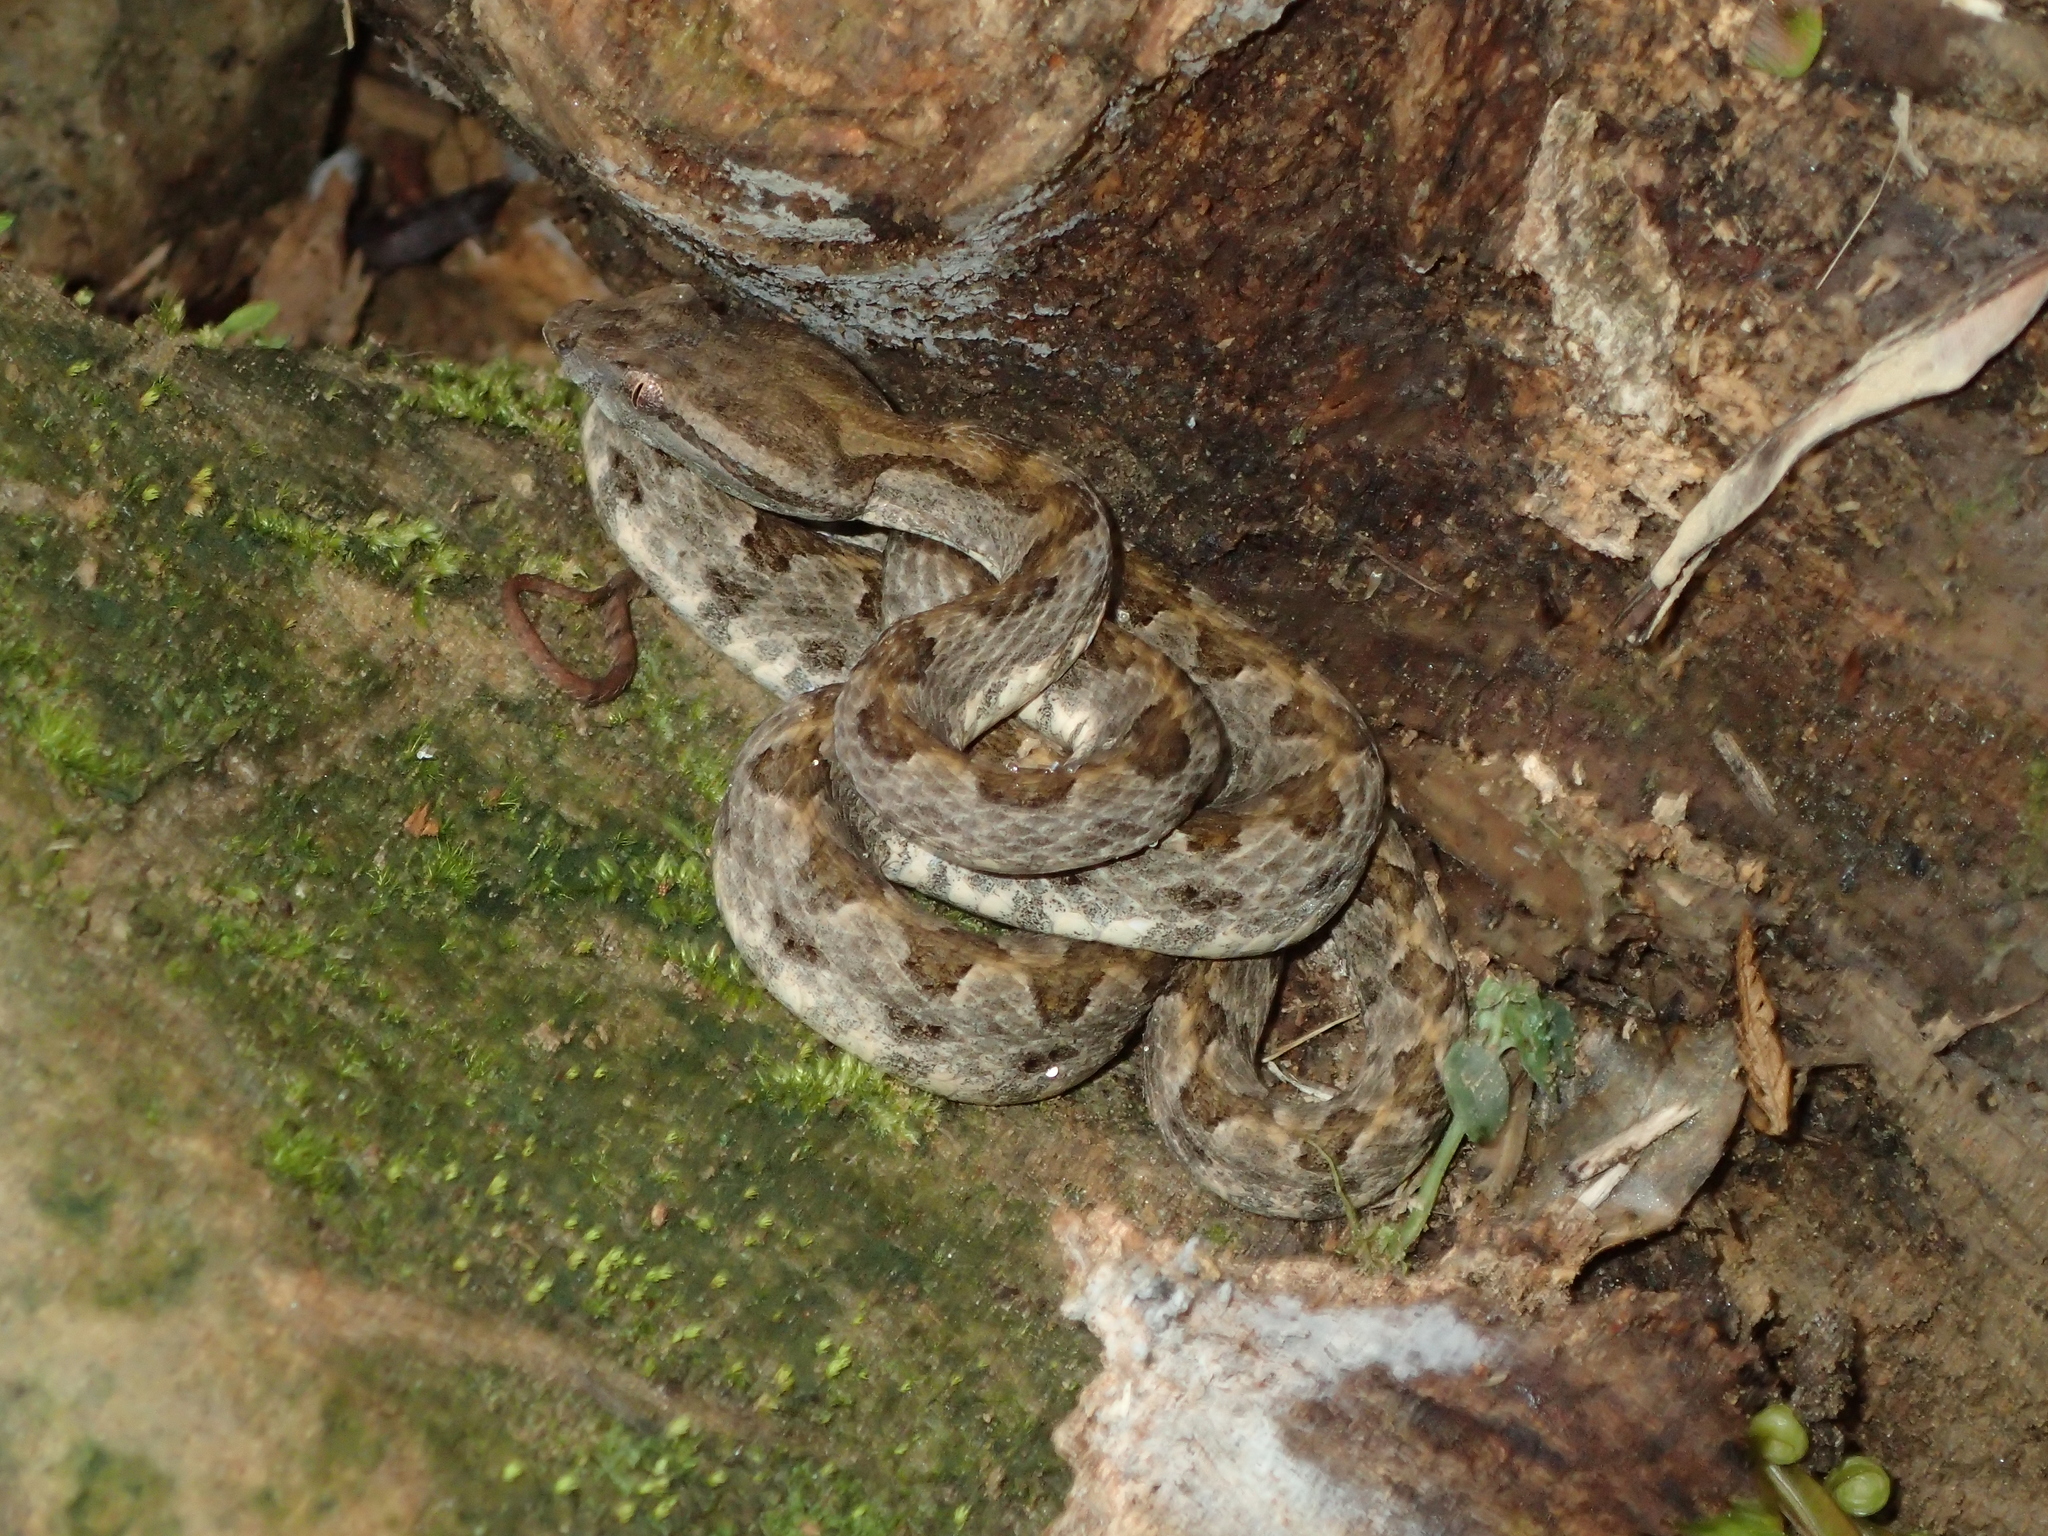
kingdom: Animalia
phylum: Chordata
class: Squamata
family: Viperidae
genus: Protobothrops
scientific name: Protobothrops elegans
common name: Elegant pitviper
